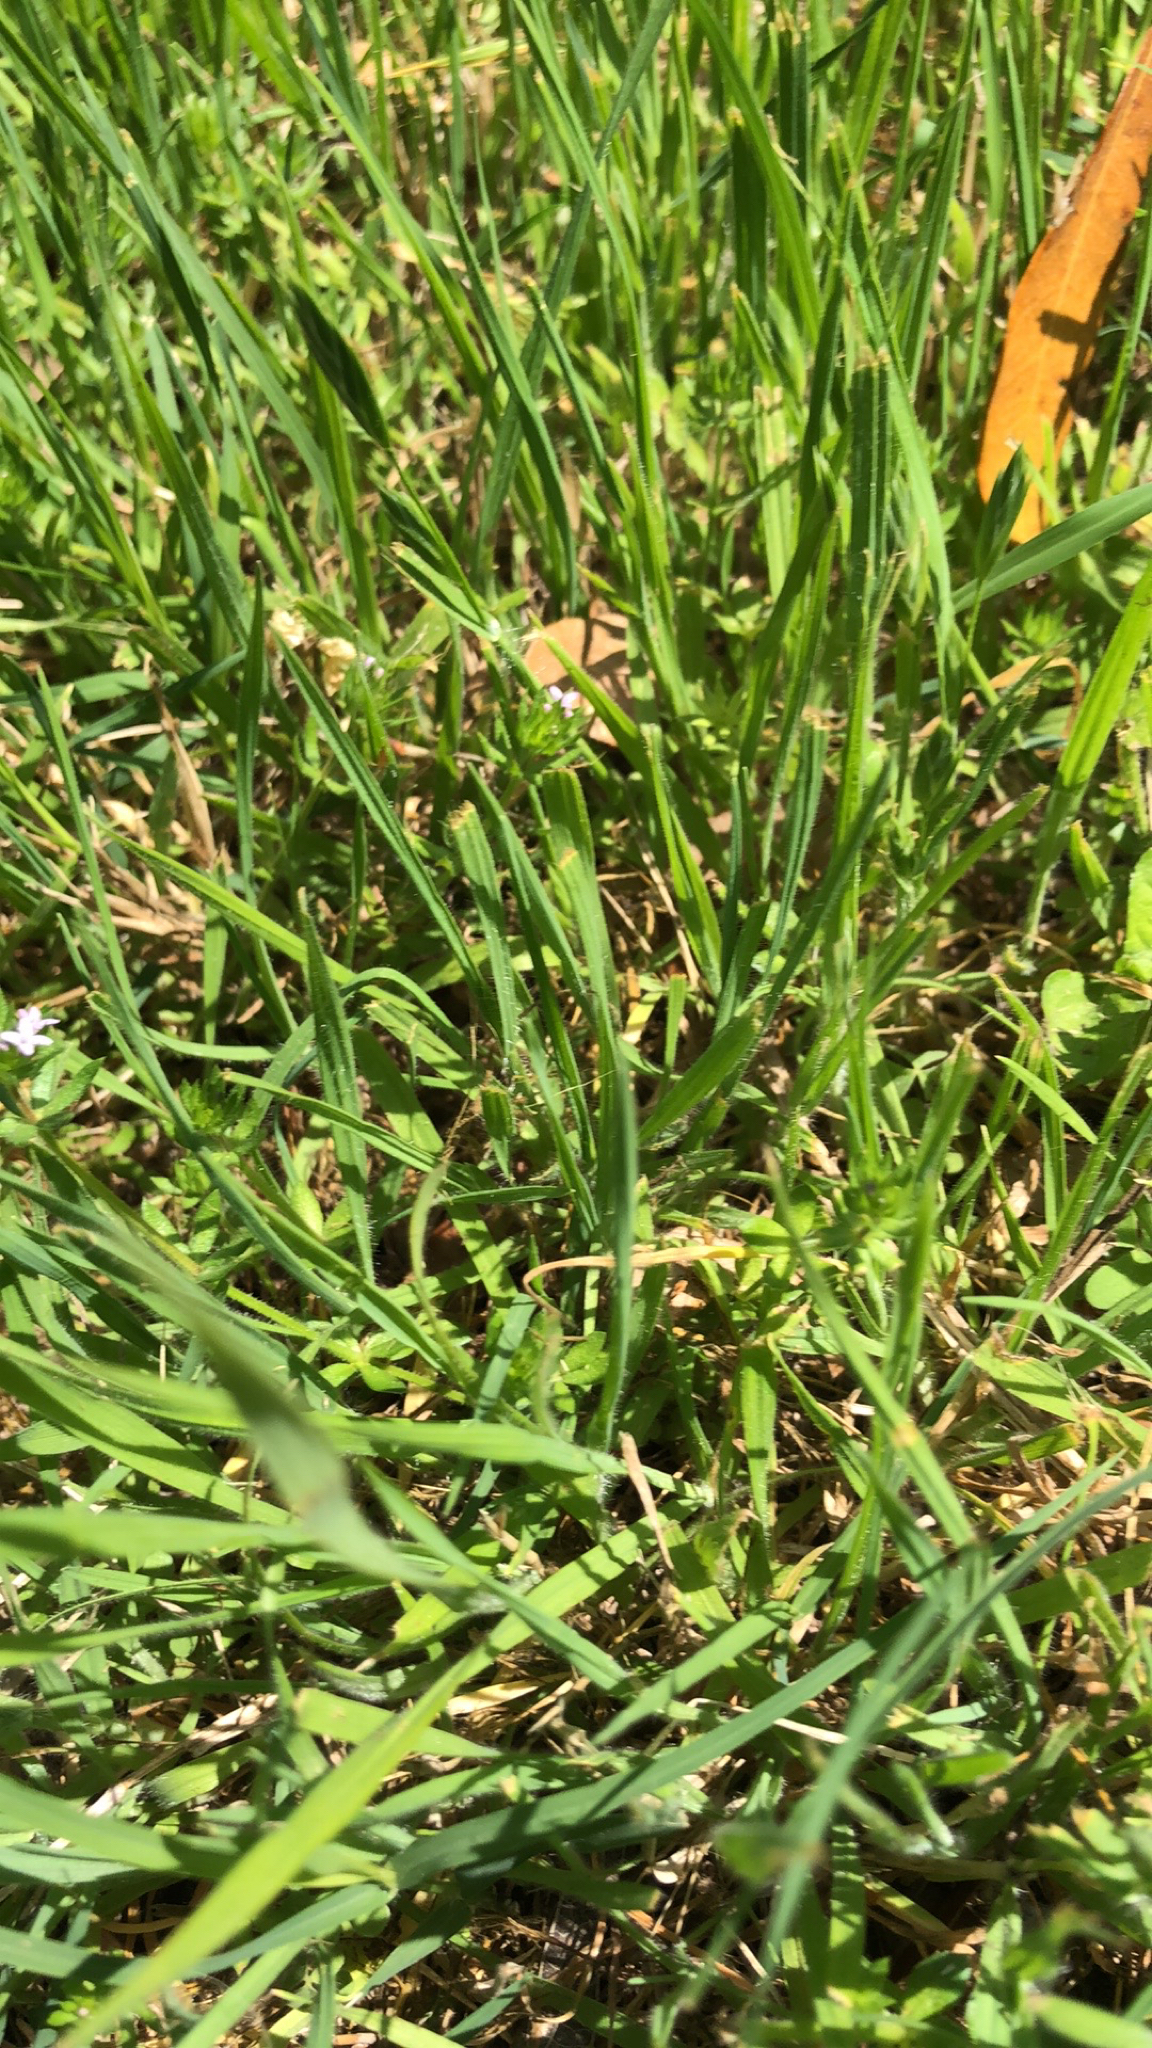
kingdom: Plantae
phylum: Tracheophyta
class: Magnoliopsida
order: Gentianales
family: Rubiaceae
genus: Sherardia
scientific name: Sherardia arvensis
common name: Field madder
